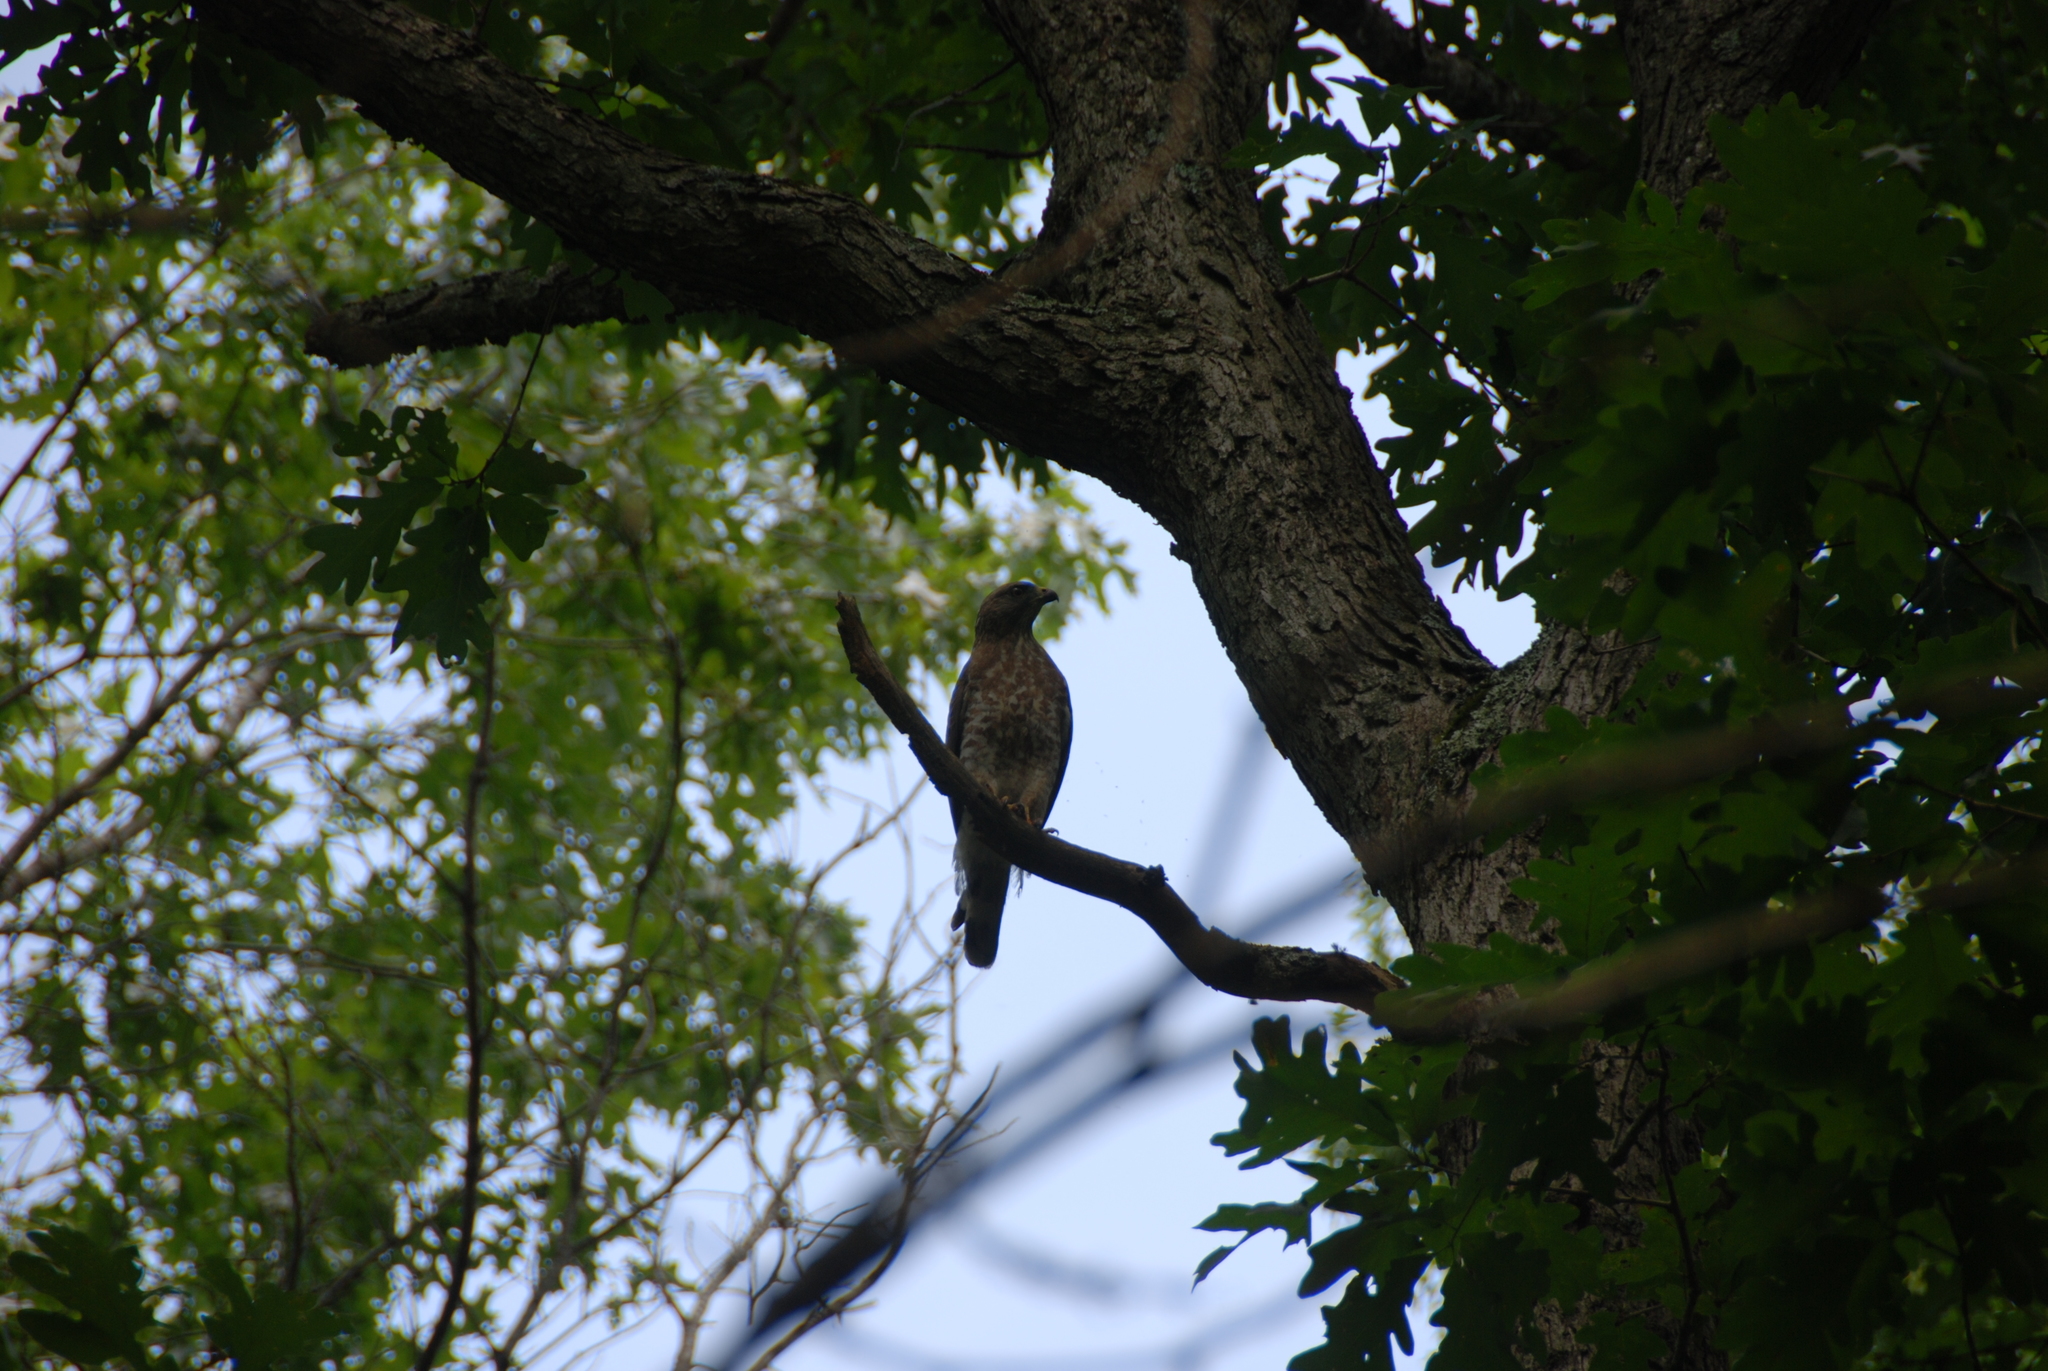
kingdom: Animalia
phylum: Chordata
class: Aves
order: Accipitriformes
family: Accipitridae
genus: Buteo
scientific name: Buteo platypterus
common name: Broad-winged hawk
